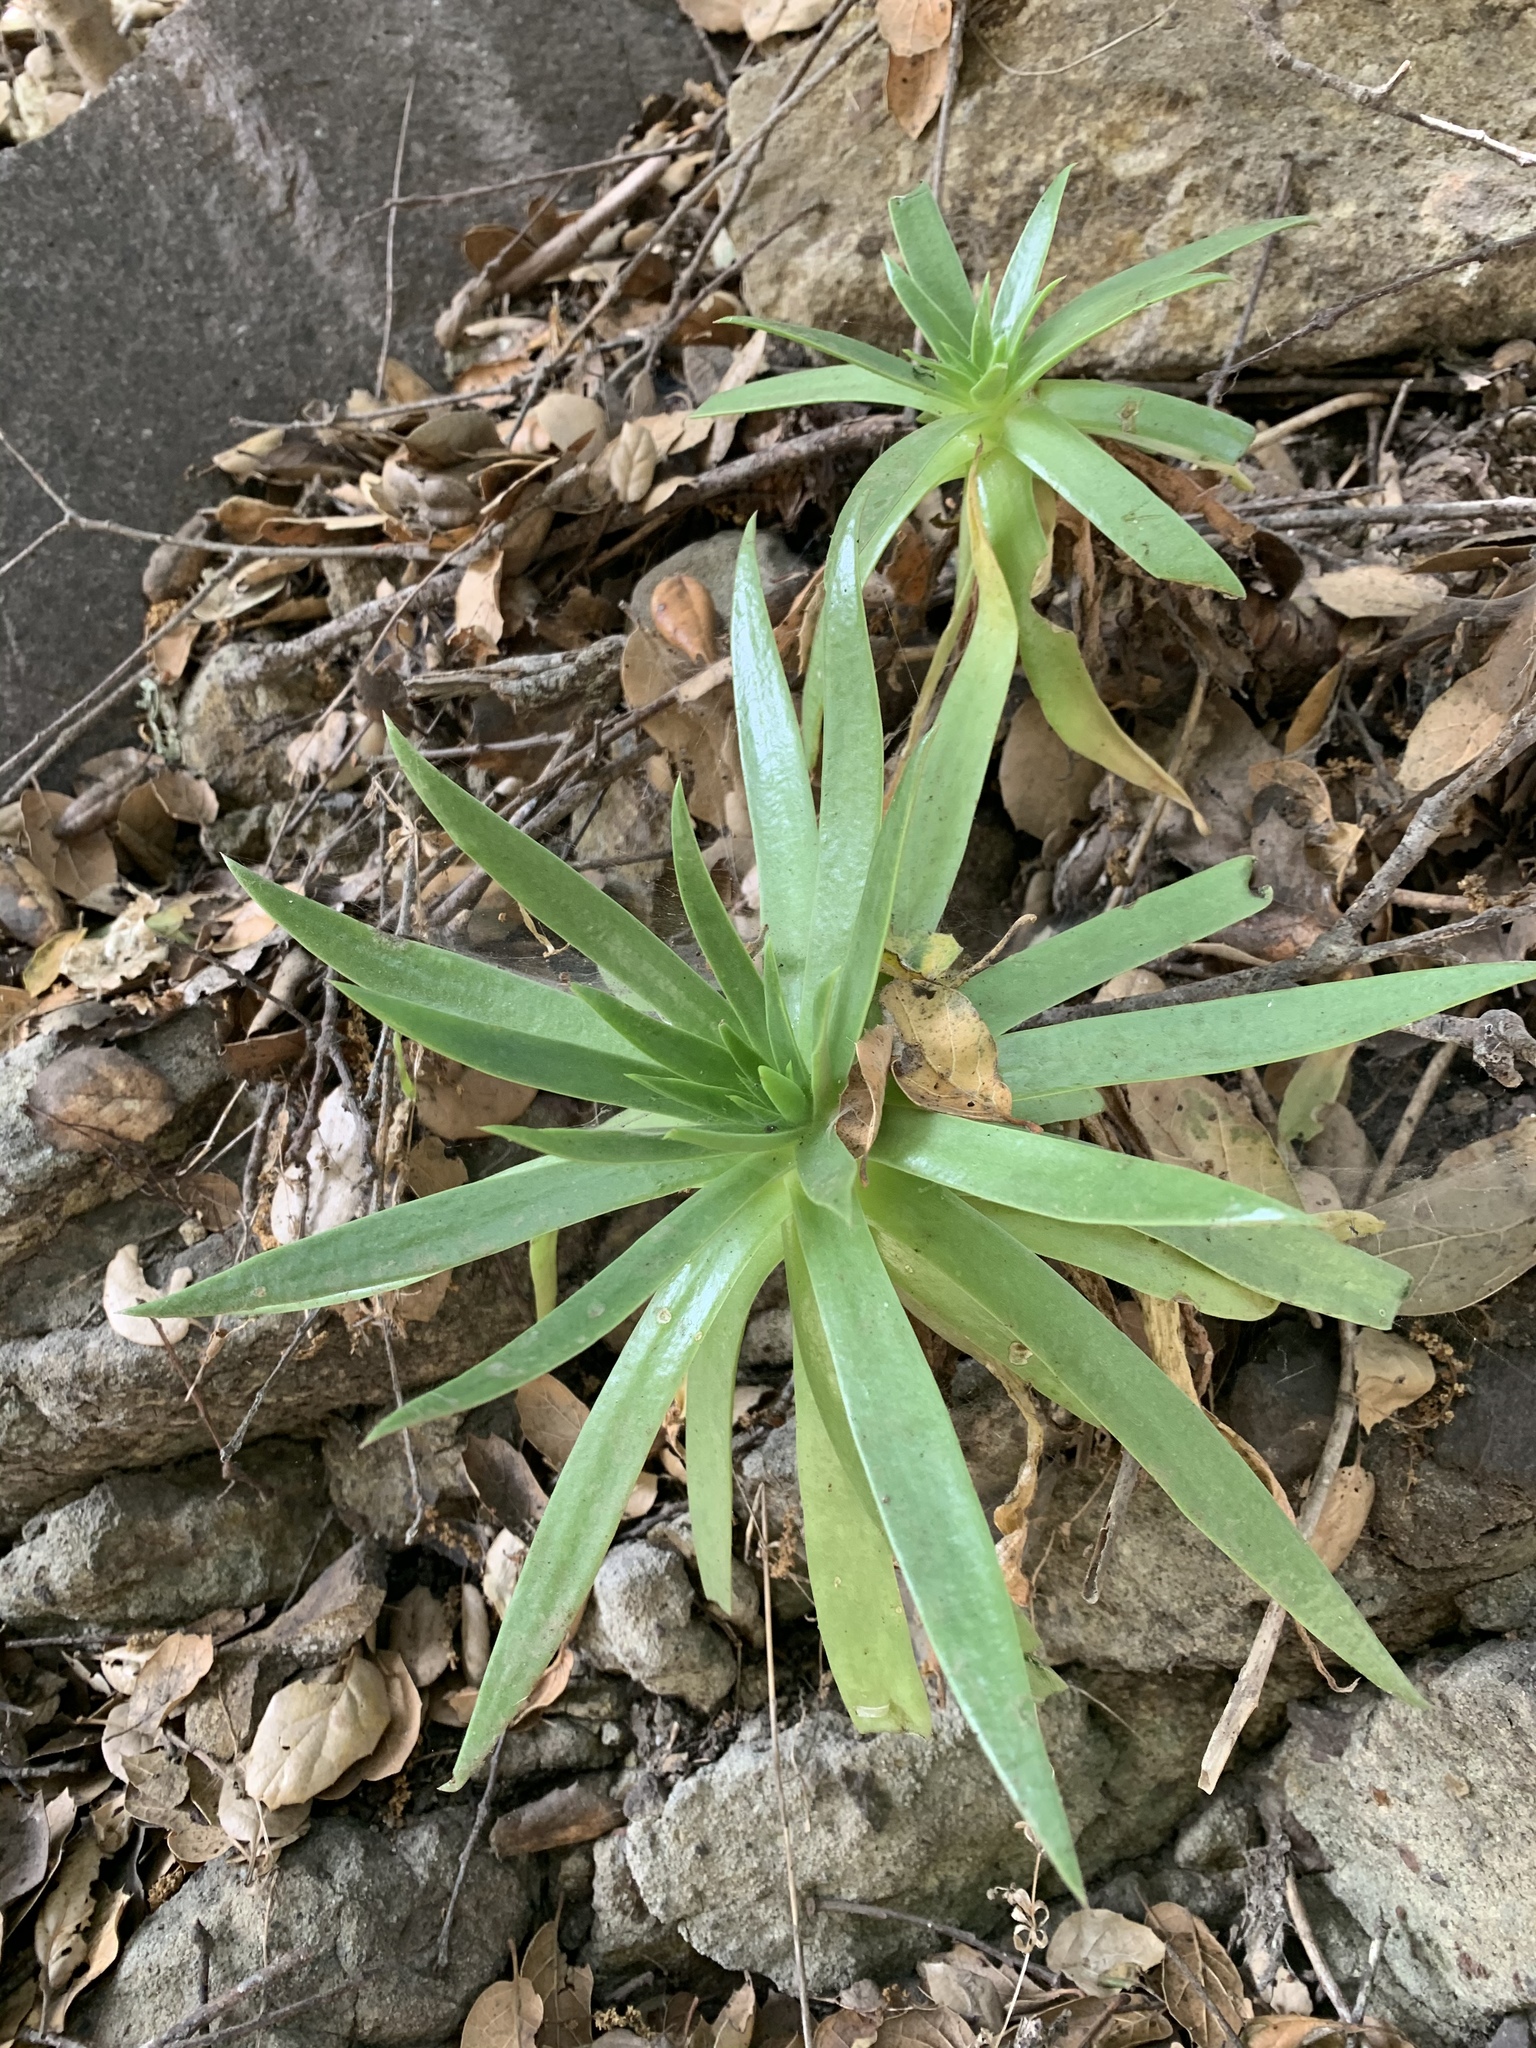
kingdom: Plantae
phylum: Tracheophyta
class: Magnoliopsida
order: Saxifragales
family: Crassulaceae
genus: Dudleya
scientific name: Dudleya candelabrum
